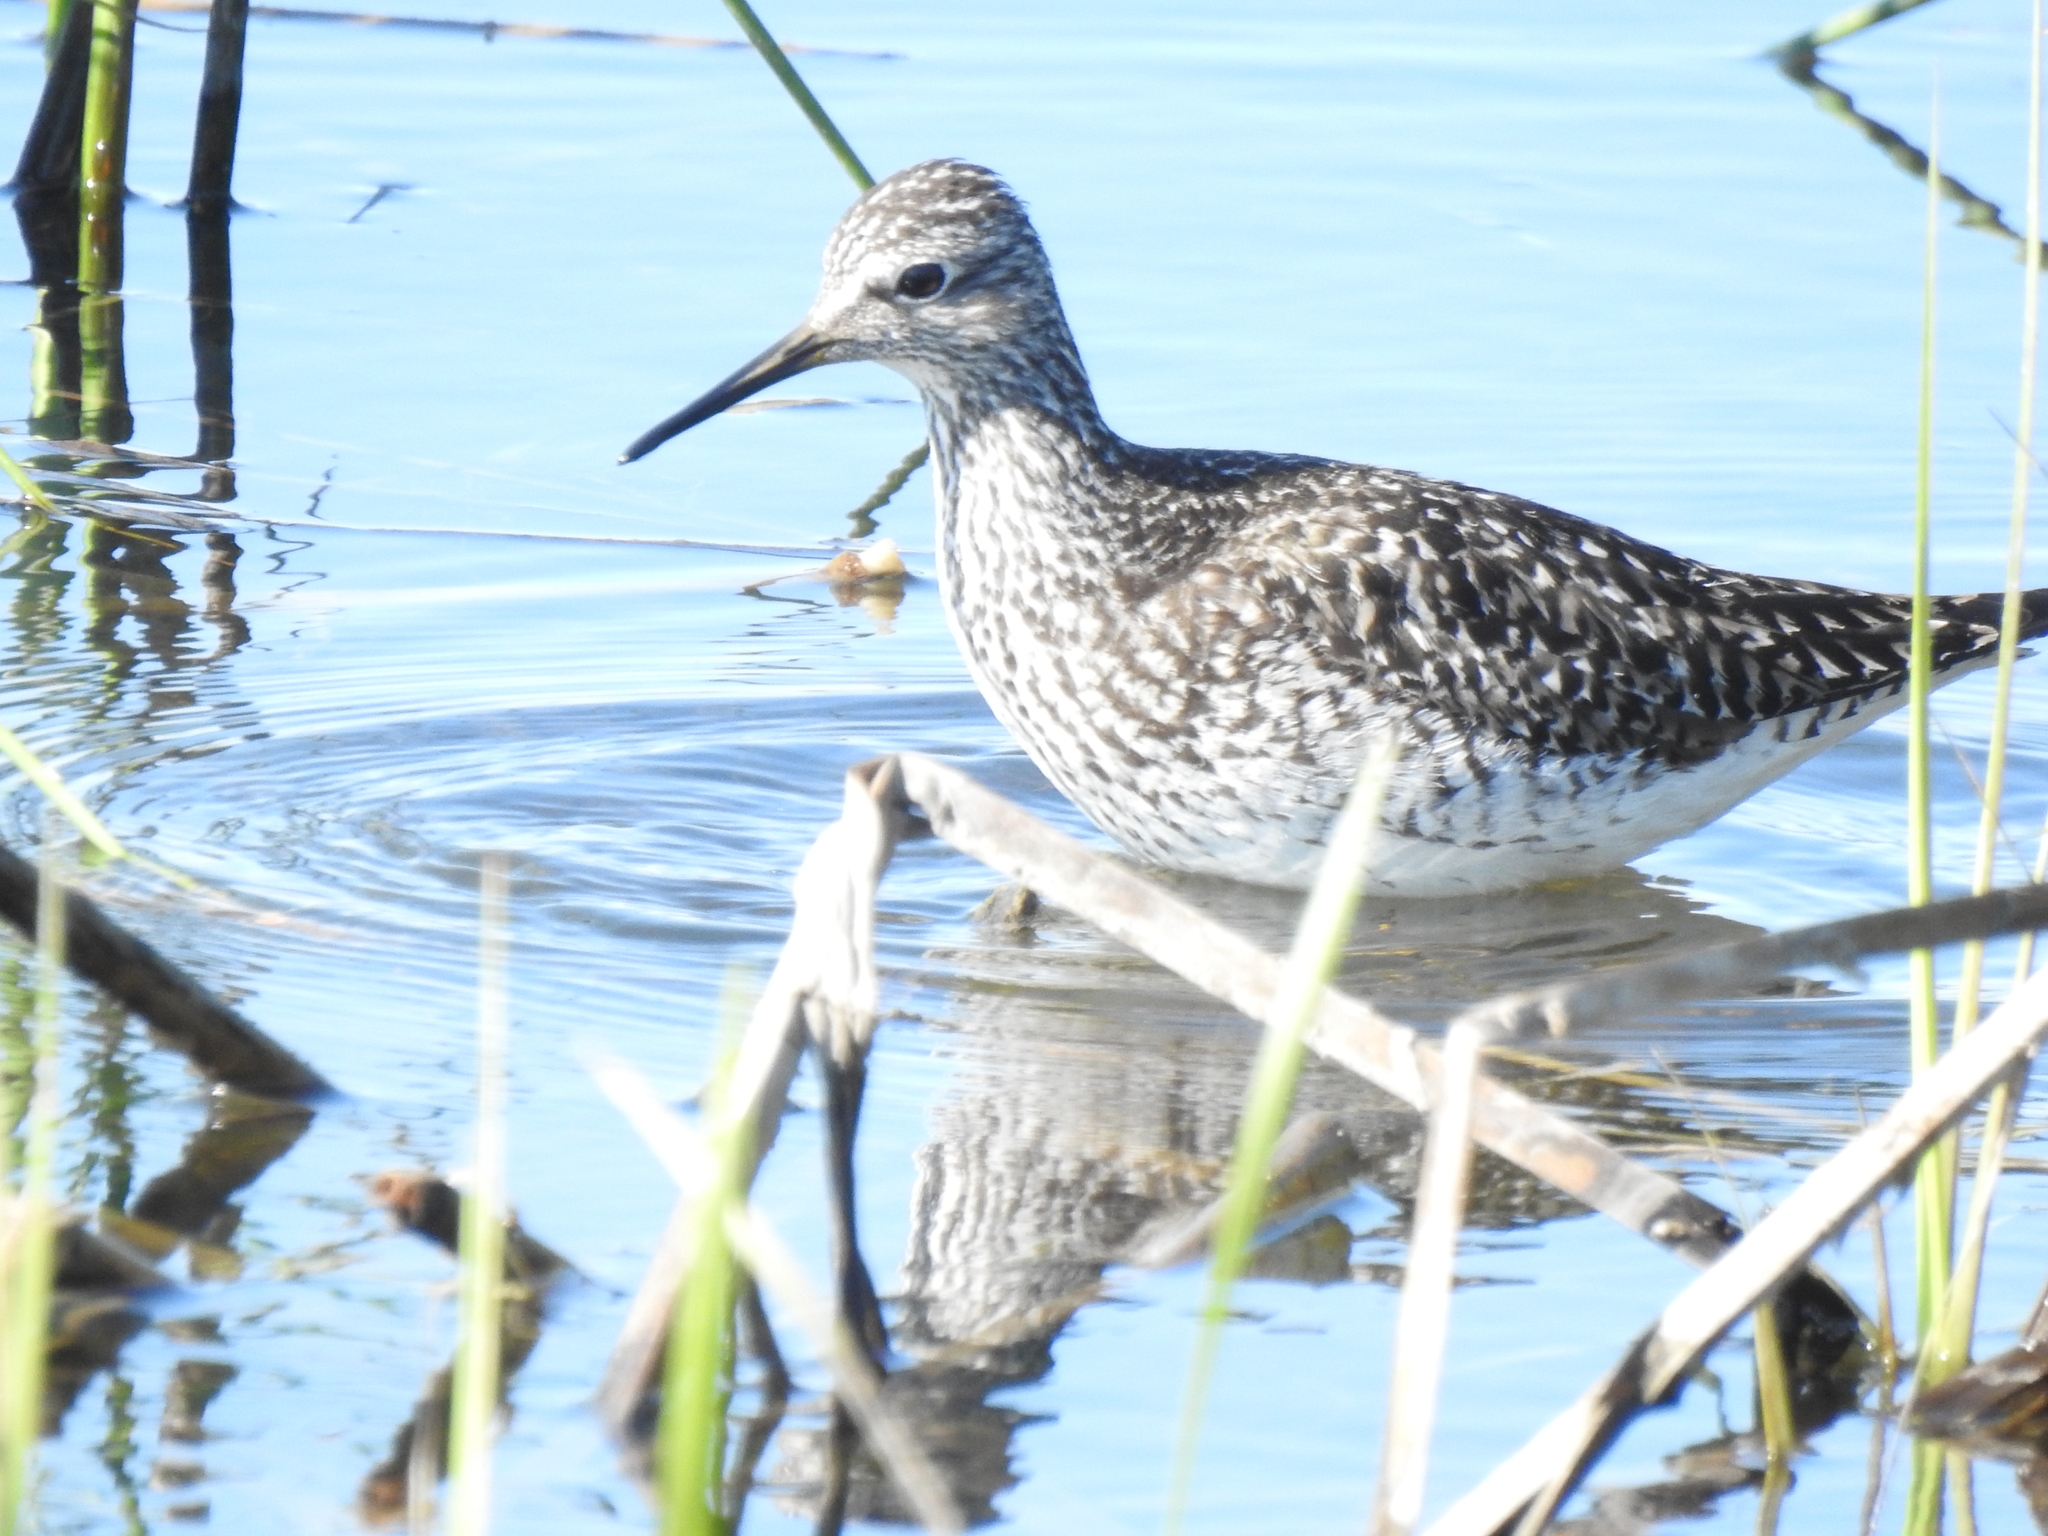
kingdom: Animalia
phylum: Chordata
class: Aves
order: Charadriiformes
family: Scolopacidae
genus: Tringa
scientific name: Tringa flavipes
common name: Lesser yellowlegs
